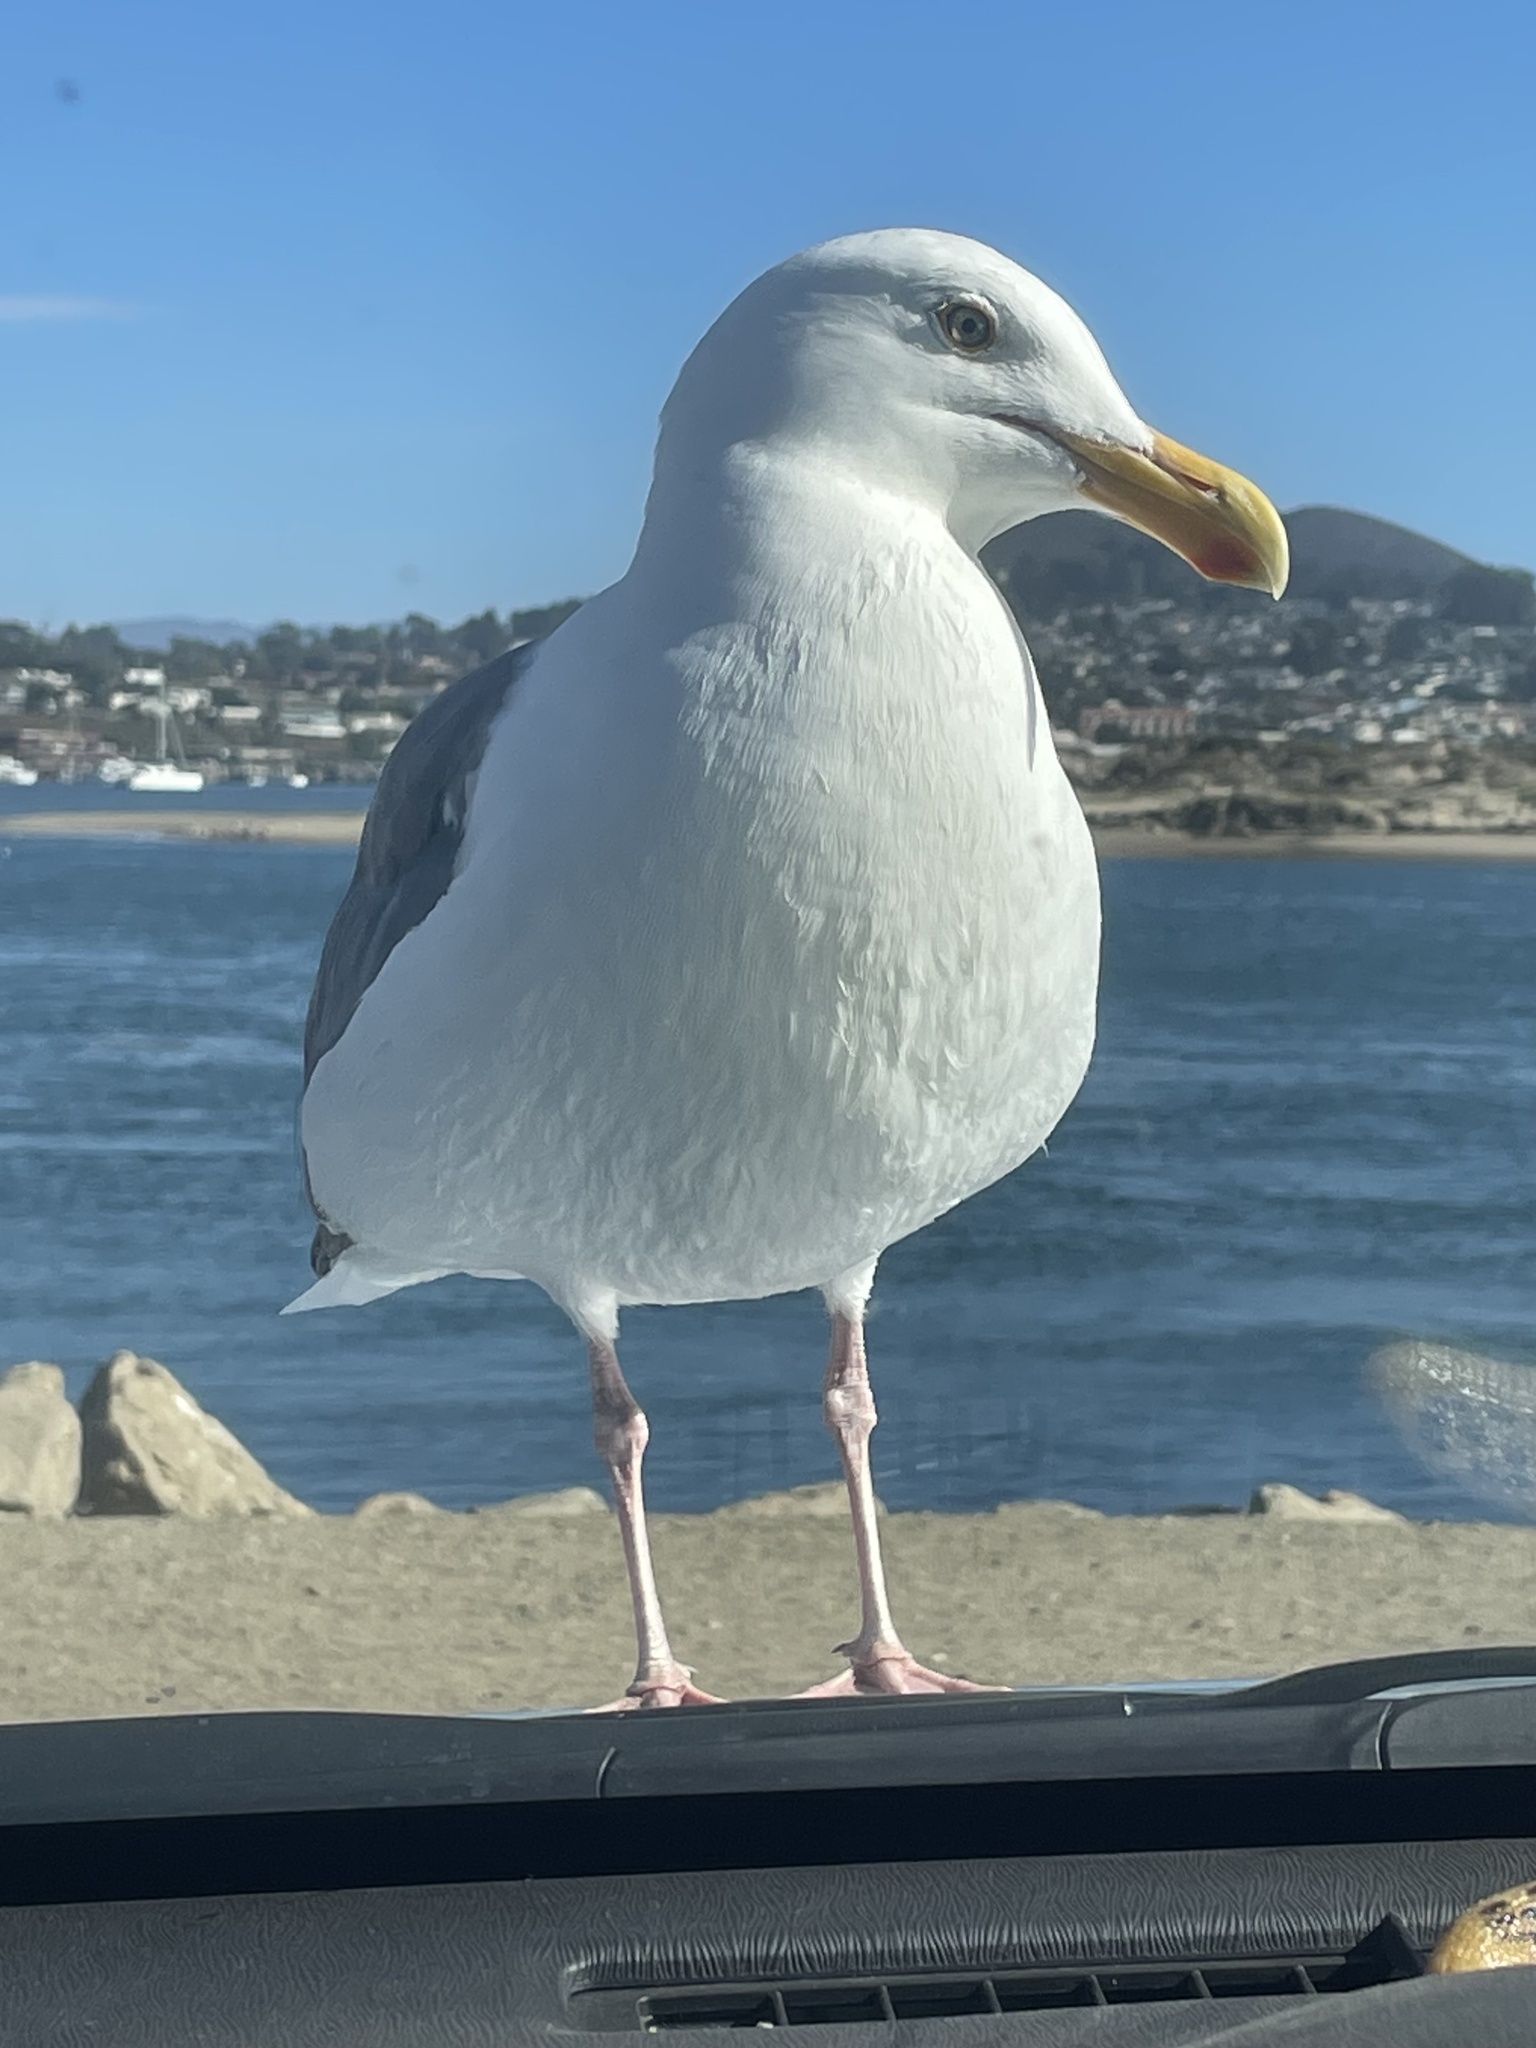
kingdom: Animalia
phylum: Chordata
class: Aves
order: Charadriiformes
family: Laridae
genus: Larus
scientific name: Larus occidentalis
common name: Western gull
